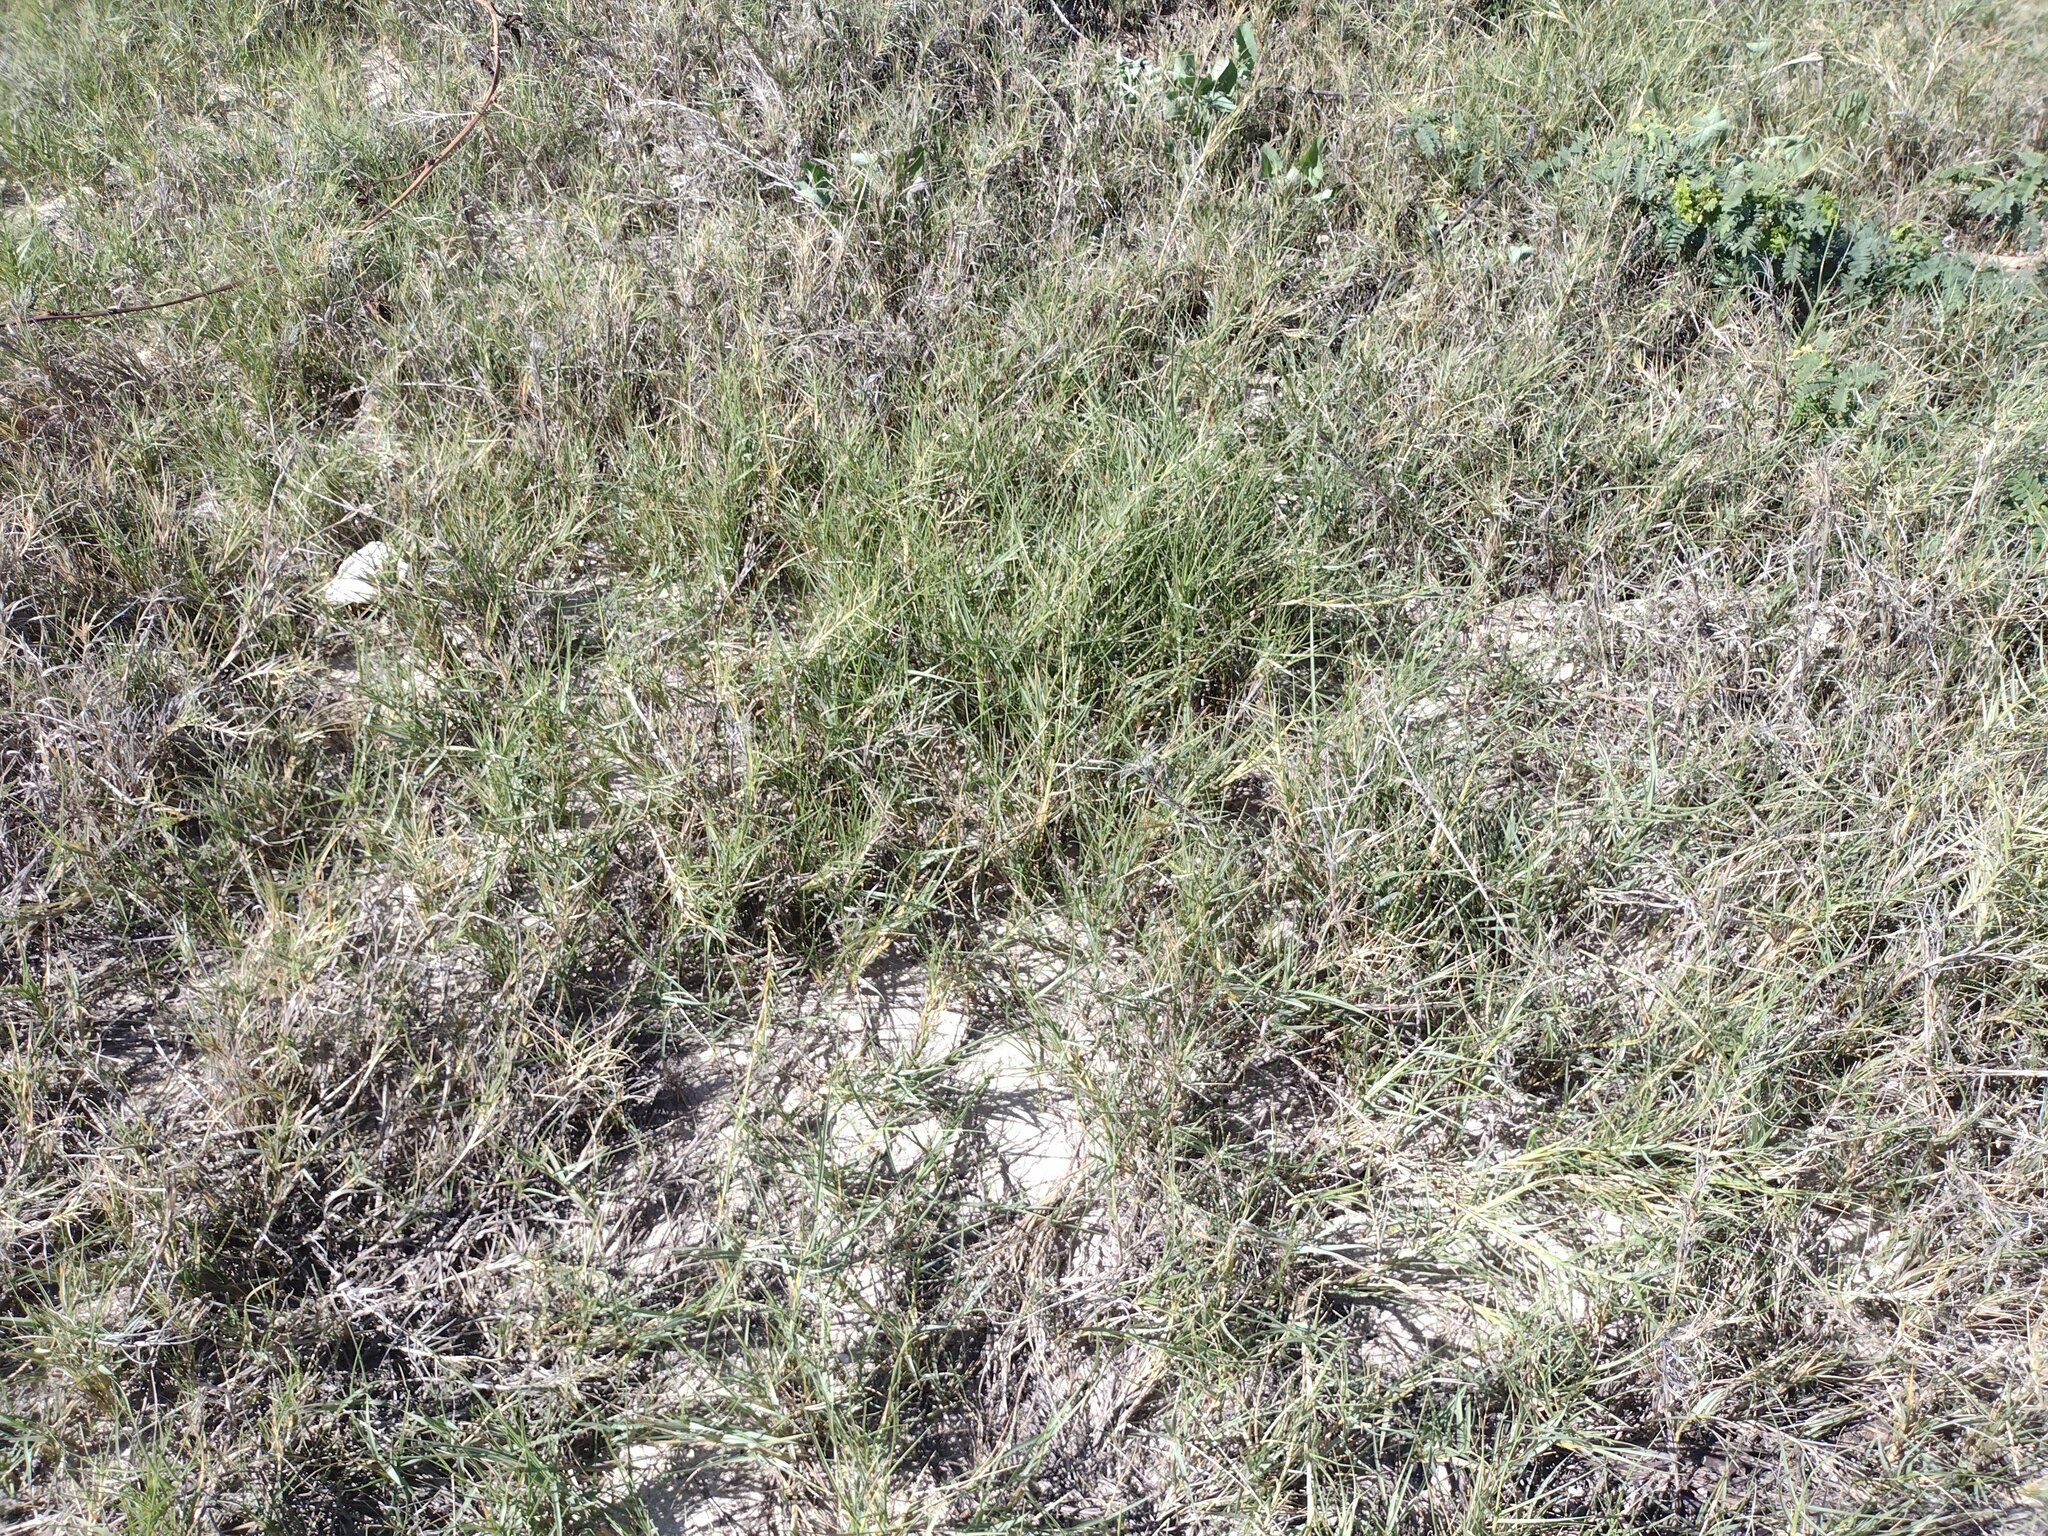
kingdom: Plantae
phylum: Tracheophyta
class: Liliopsida
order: Poales
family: Poaceae
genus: Sporobolus
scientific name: Sporobolus virginicus
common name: Beach dropseed
